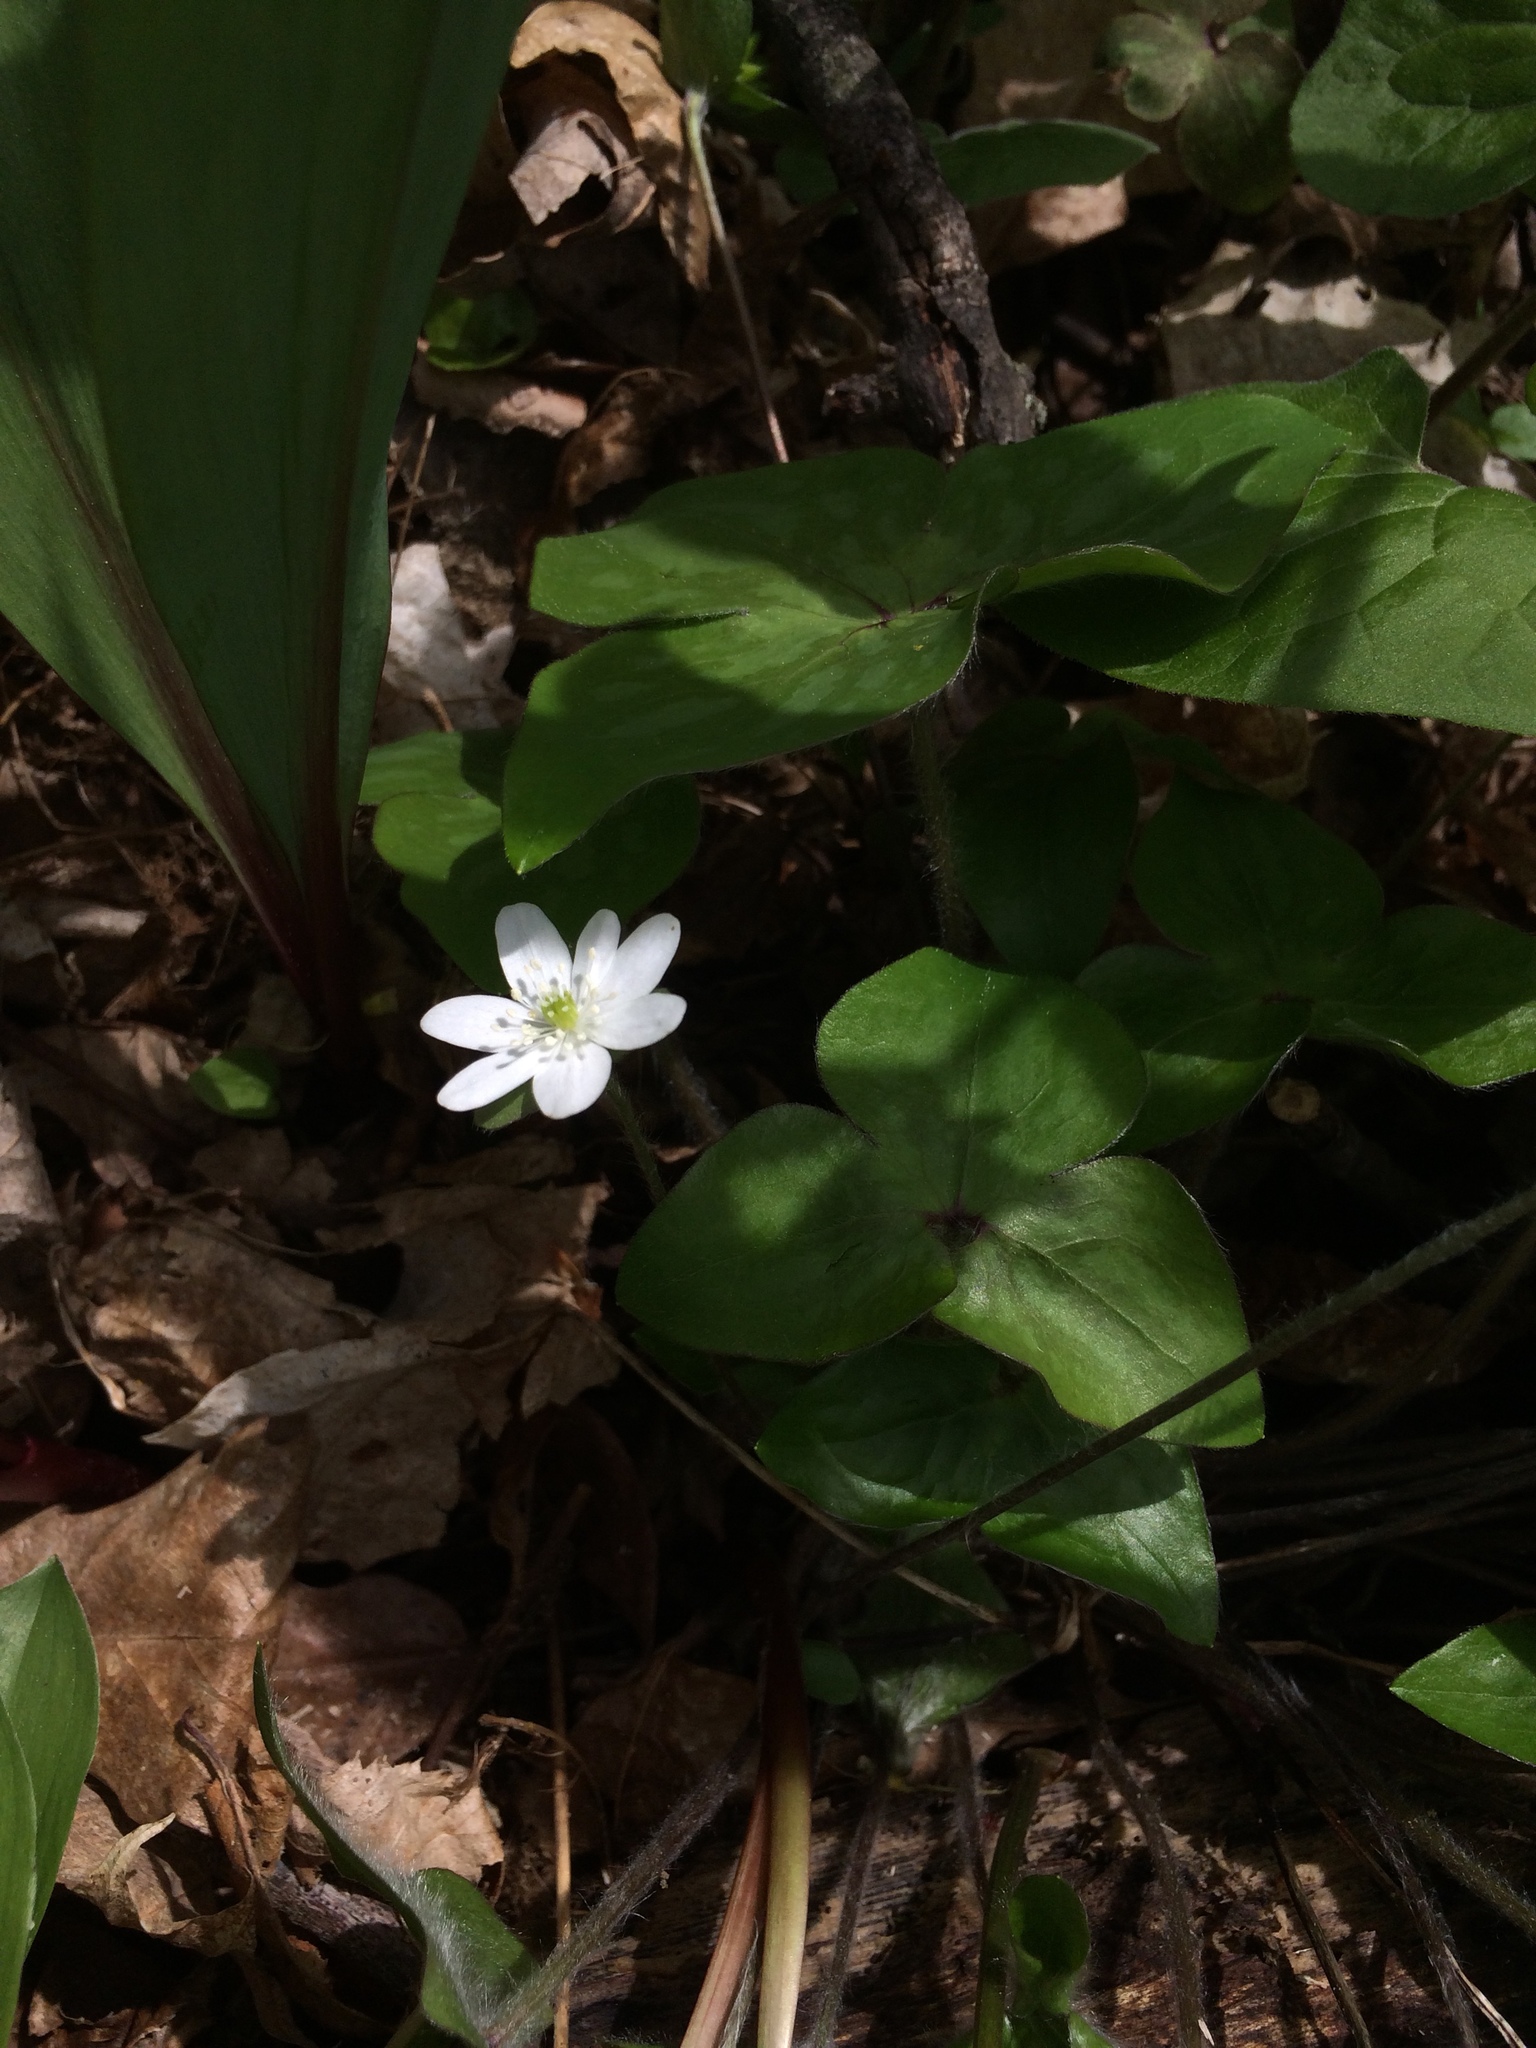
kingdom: Plantae
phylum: Tracheophyta
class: Magnoliopsida
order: Ranunculales
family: Ranunculaceae
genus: Hepatica
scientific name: Hepatica acutiloba
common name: Sharp-lobed hepatica
